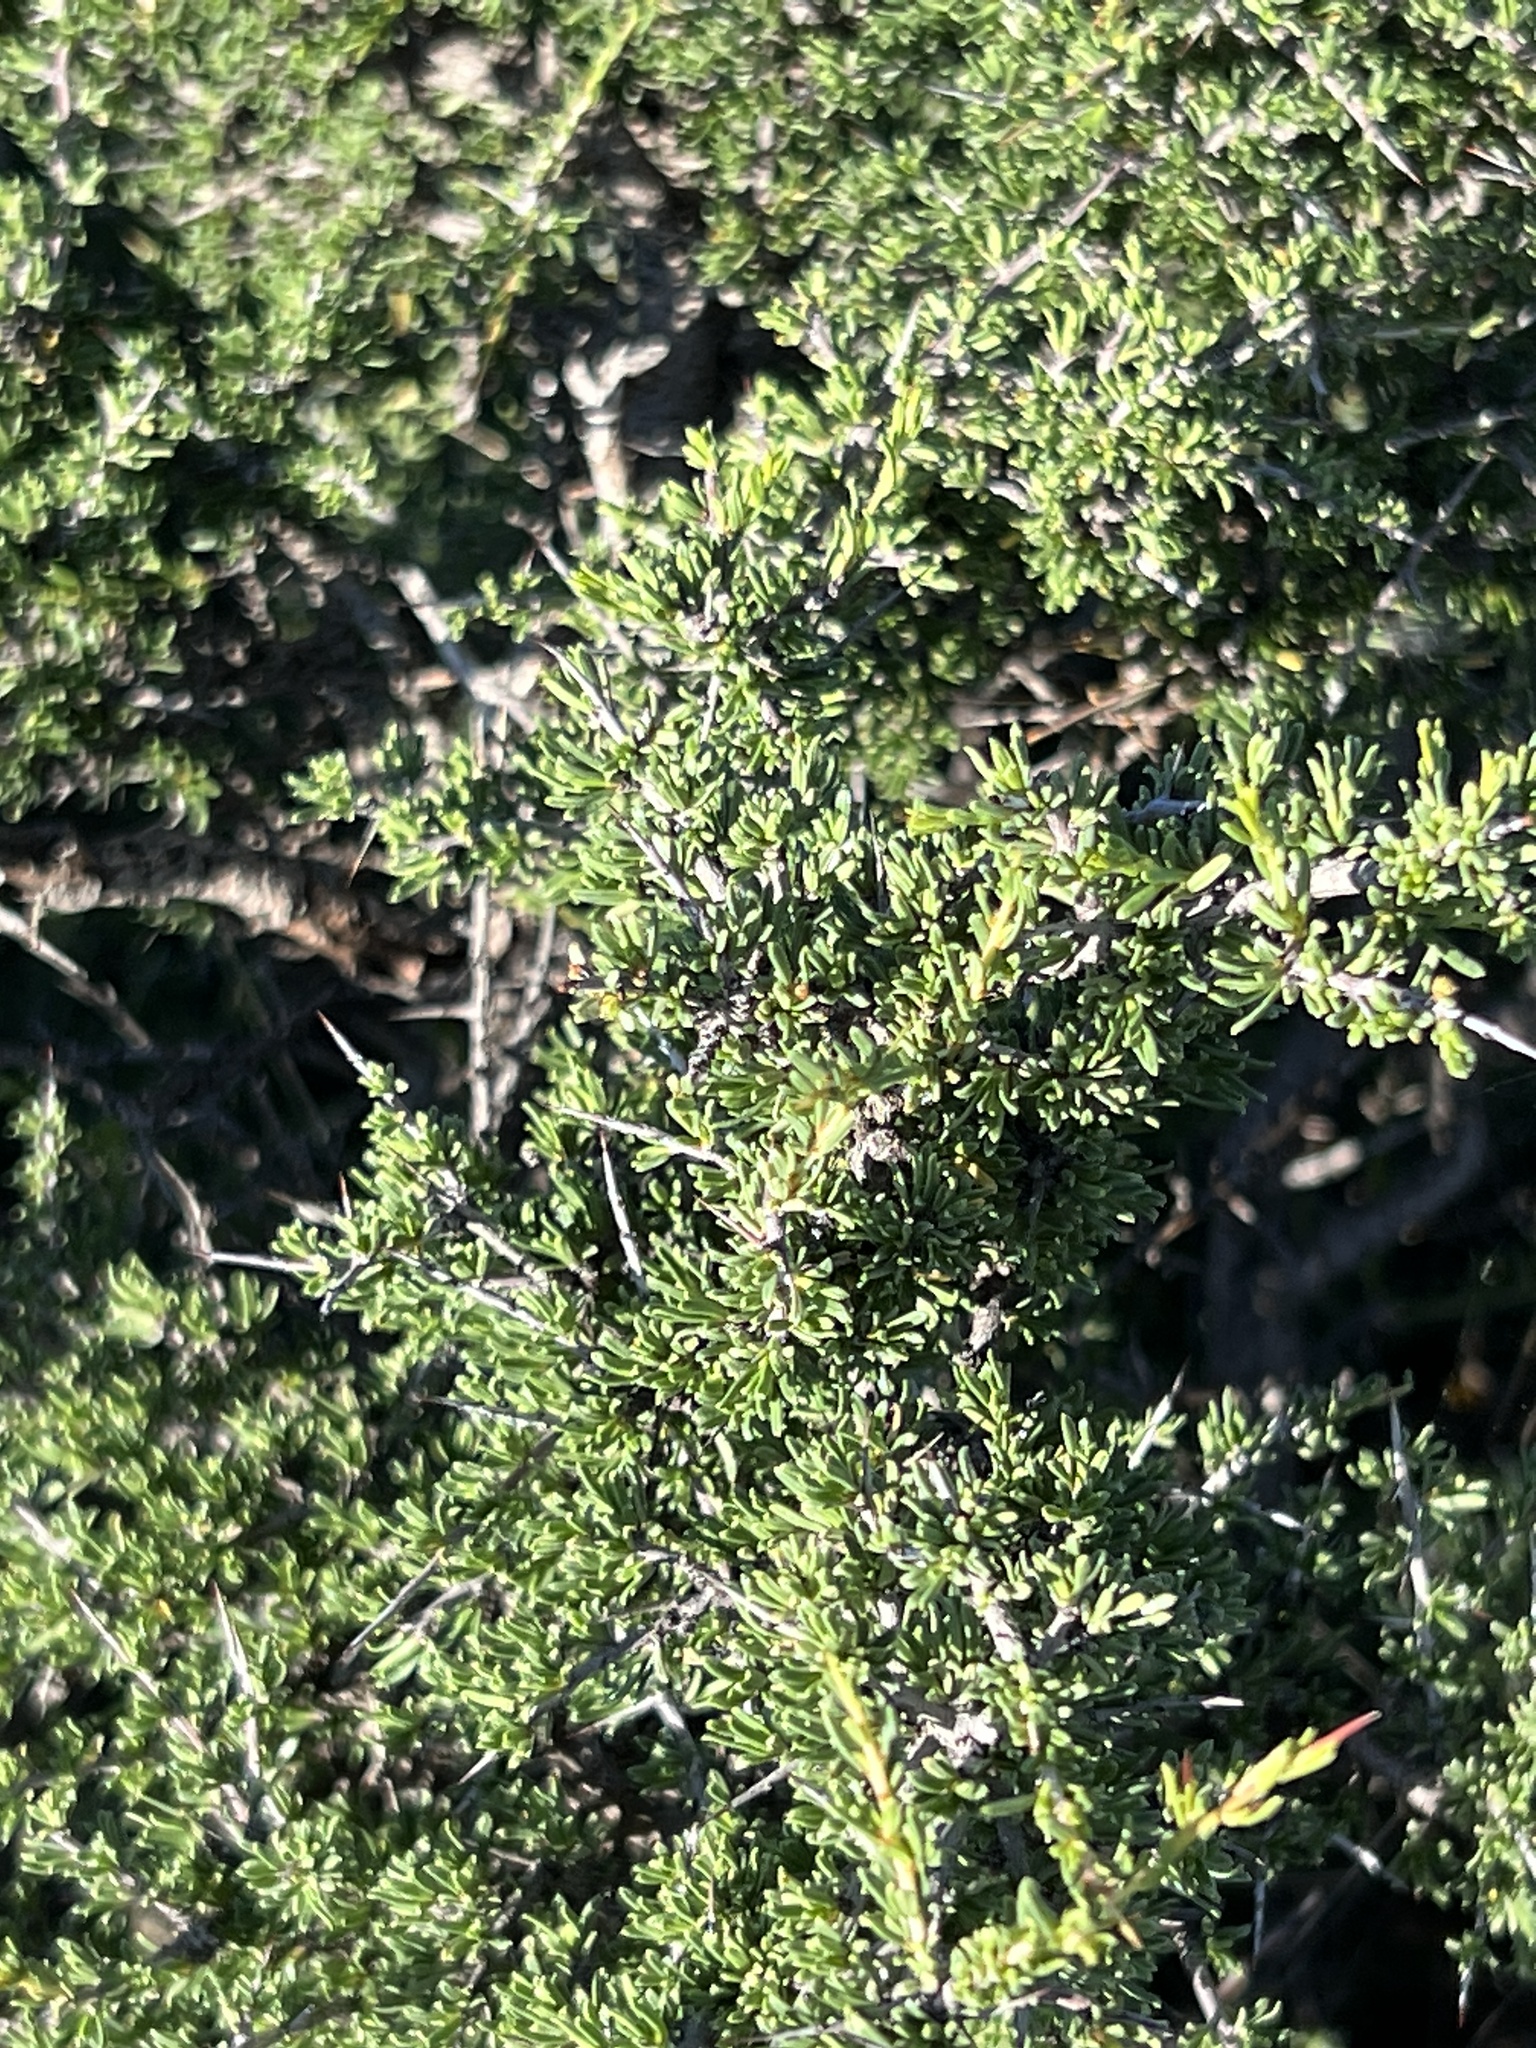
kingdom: Plantae
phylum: Tracheophyta
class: Magnoliopsida
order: Rosales
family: Rhamnaceae
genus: Condalia
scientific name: Condalia ericoides
